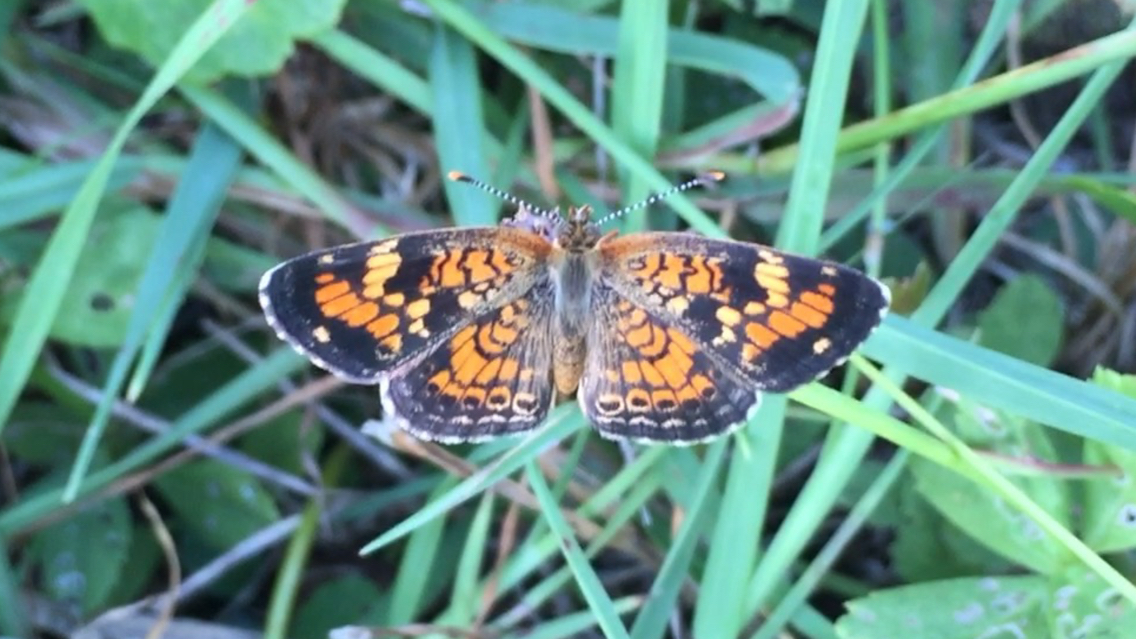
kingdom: Animalia
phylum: Arthropoda
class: Insecta
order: Lepidoptera
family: Nymphalidae
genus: Phyciodes
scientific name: Phyciodes phaon
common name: Phaon crescent
